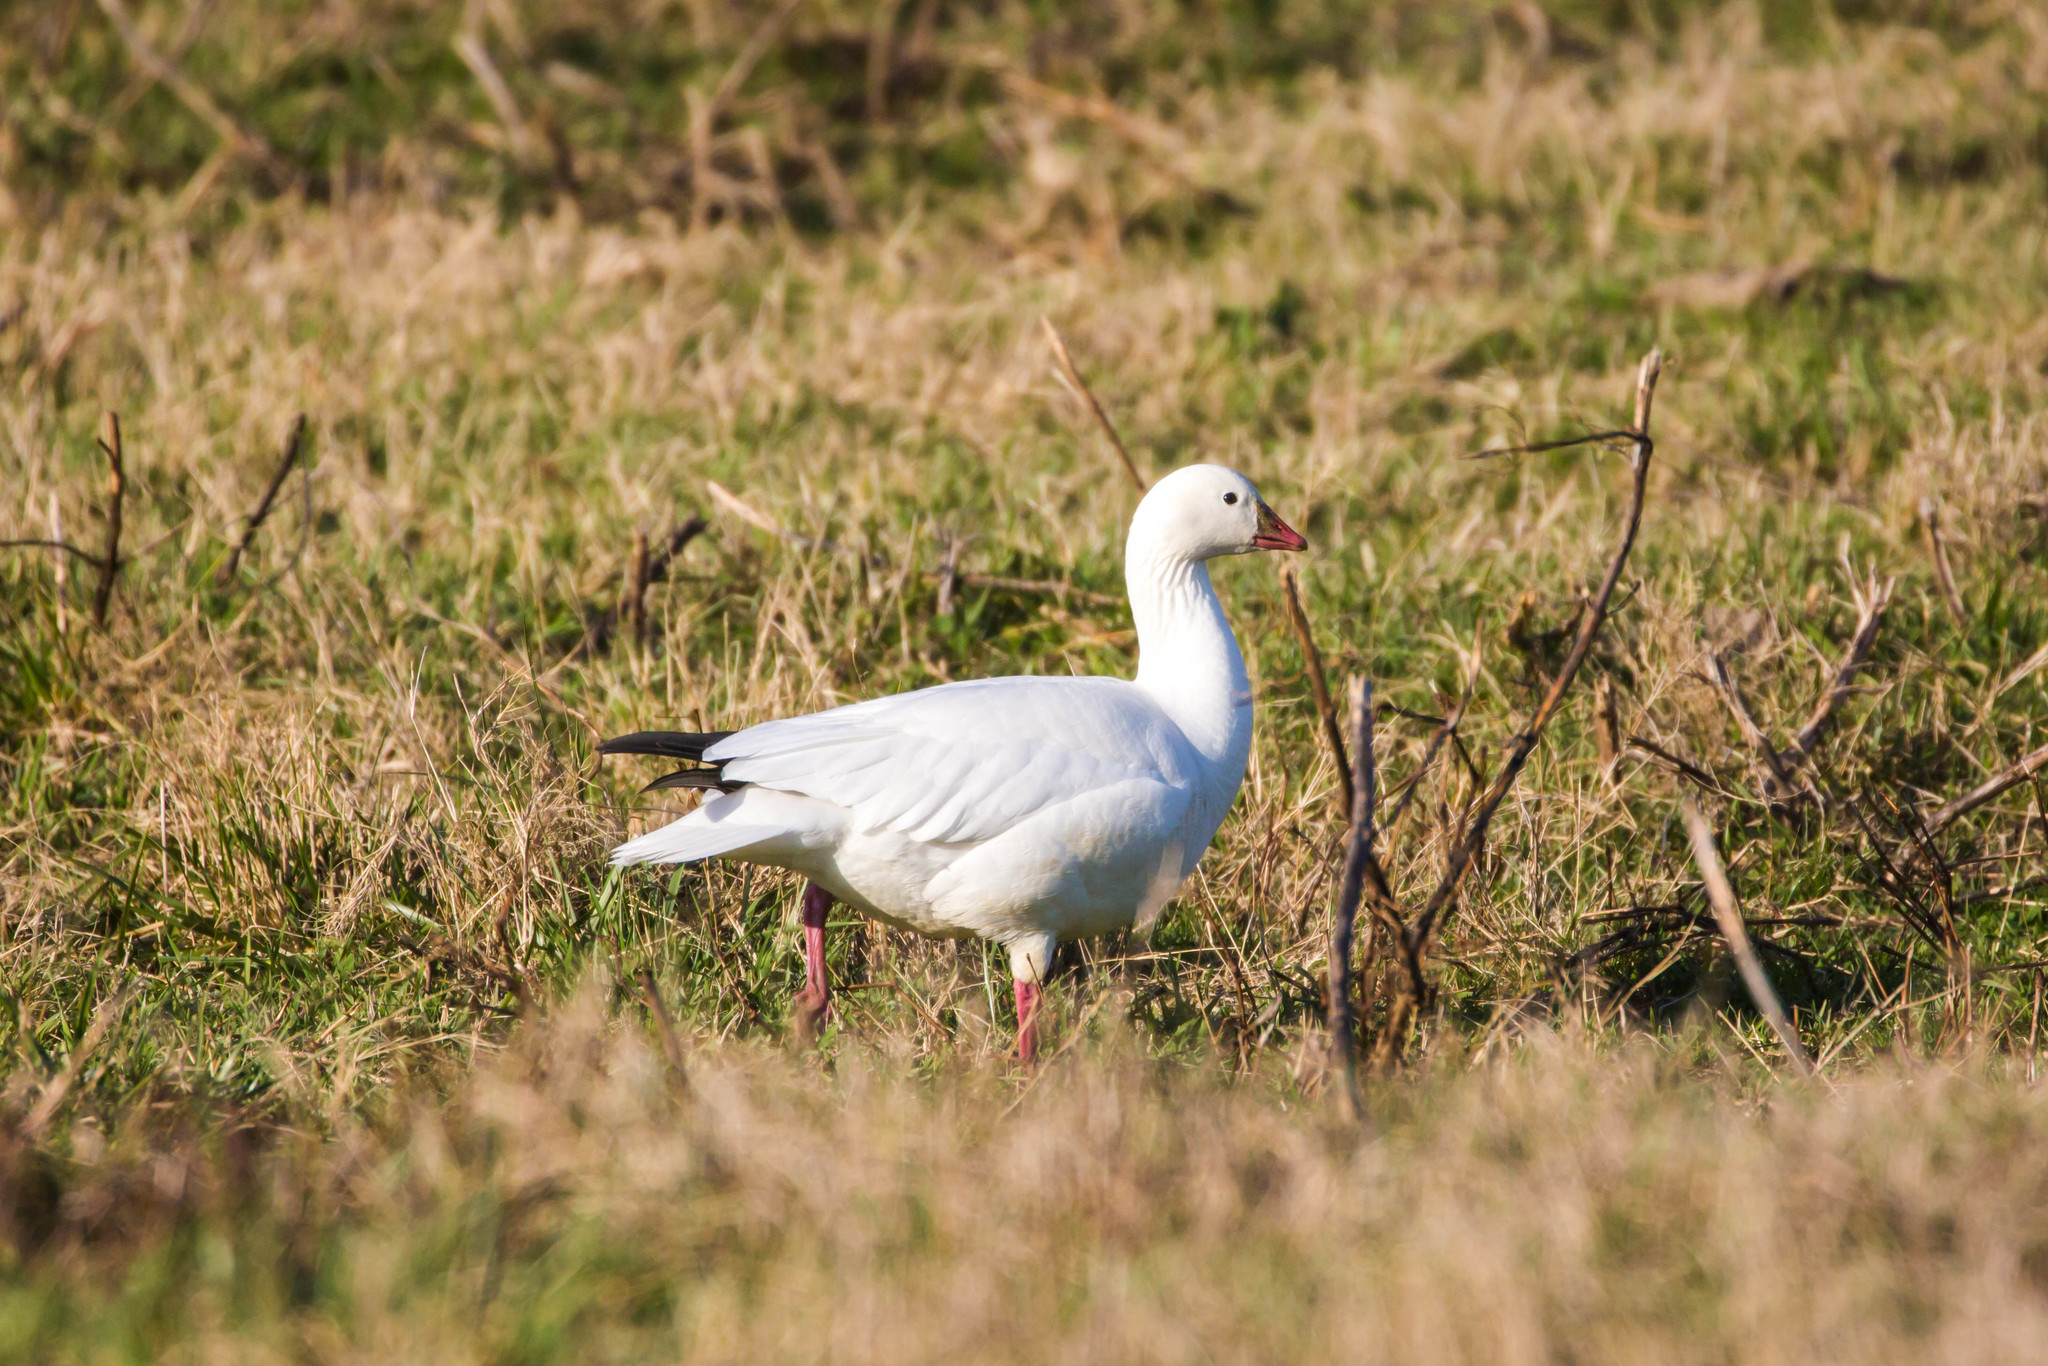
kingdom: Animalia
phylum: Chordata
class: Aves
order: Anseriformes
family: Anatidae
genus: Anser
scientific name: Anser rossii
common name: Ross's goose
